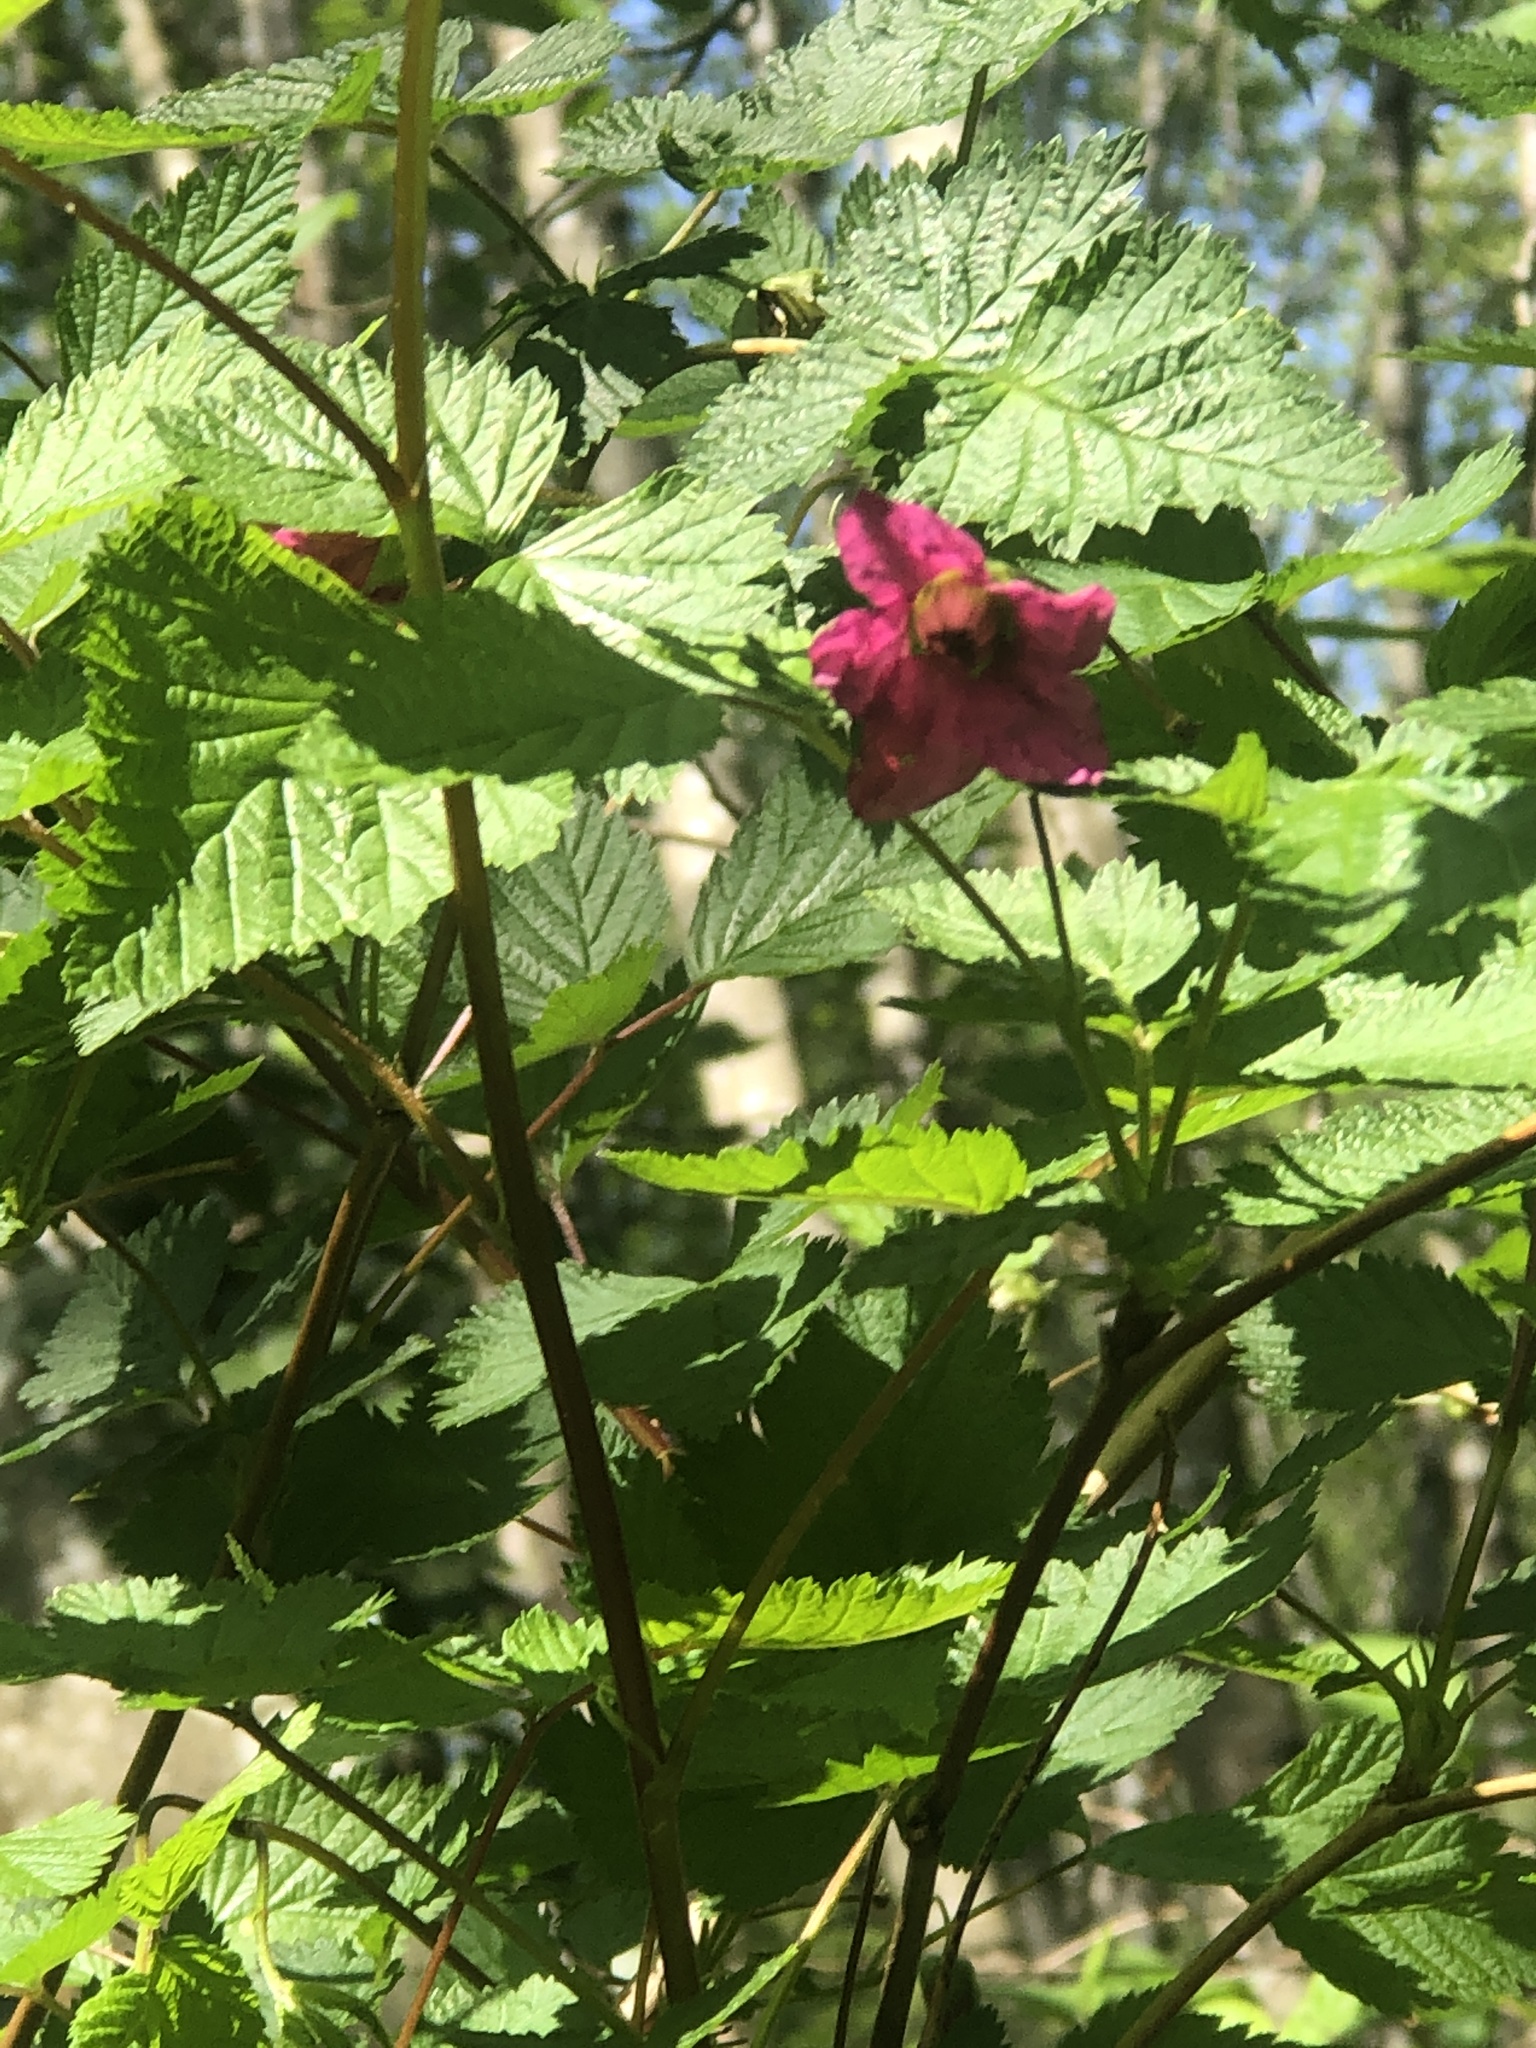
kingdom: Plantae
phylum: Tracheophyta
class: Magnoliopsida
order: Rosales
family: Rosaceae
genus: Rubus
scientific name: Rubus spectabilis
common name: Salmonberry
